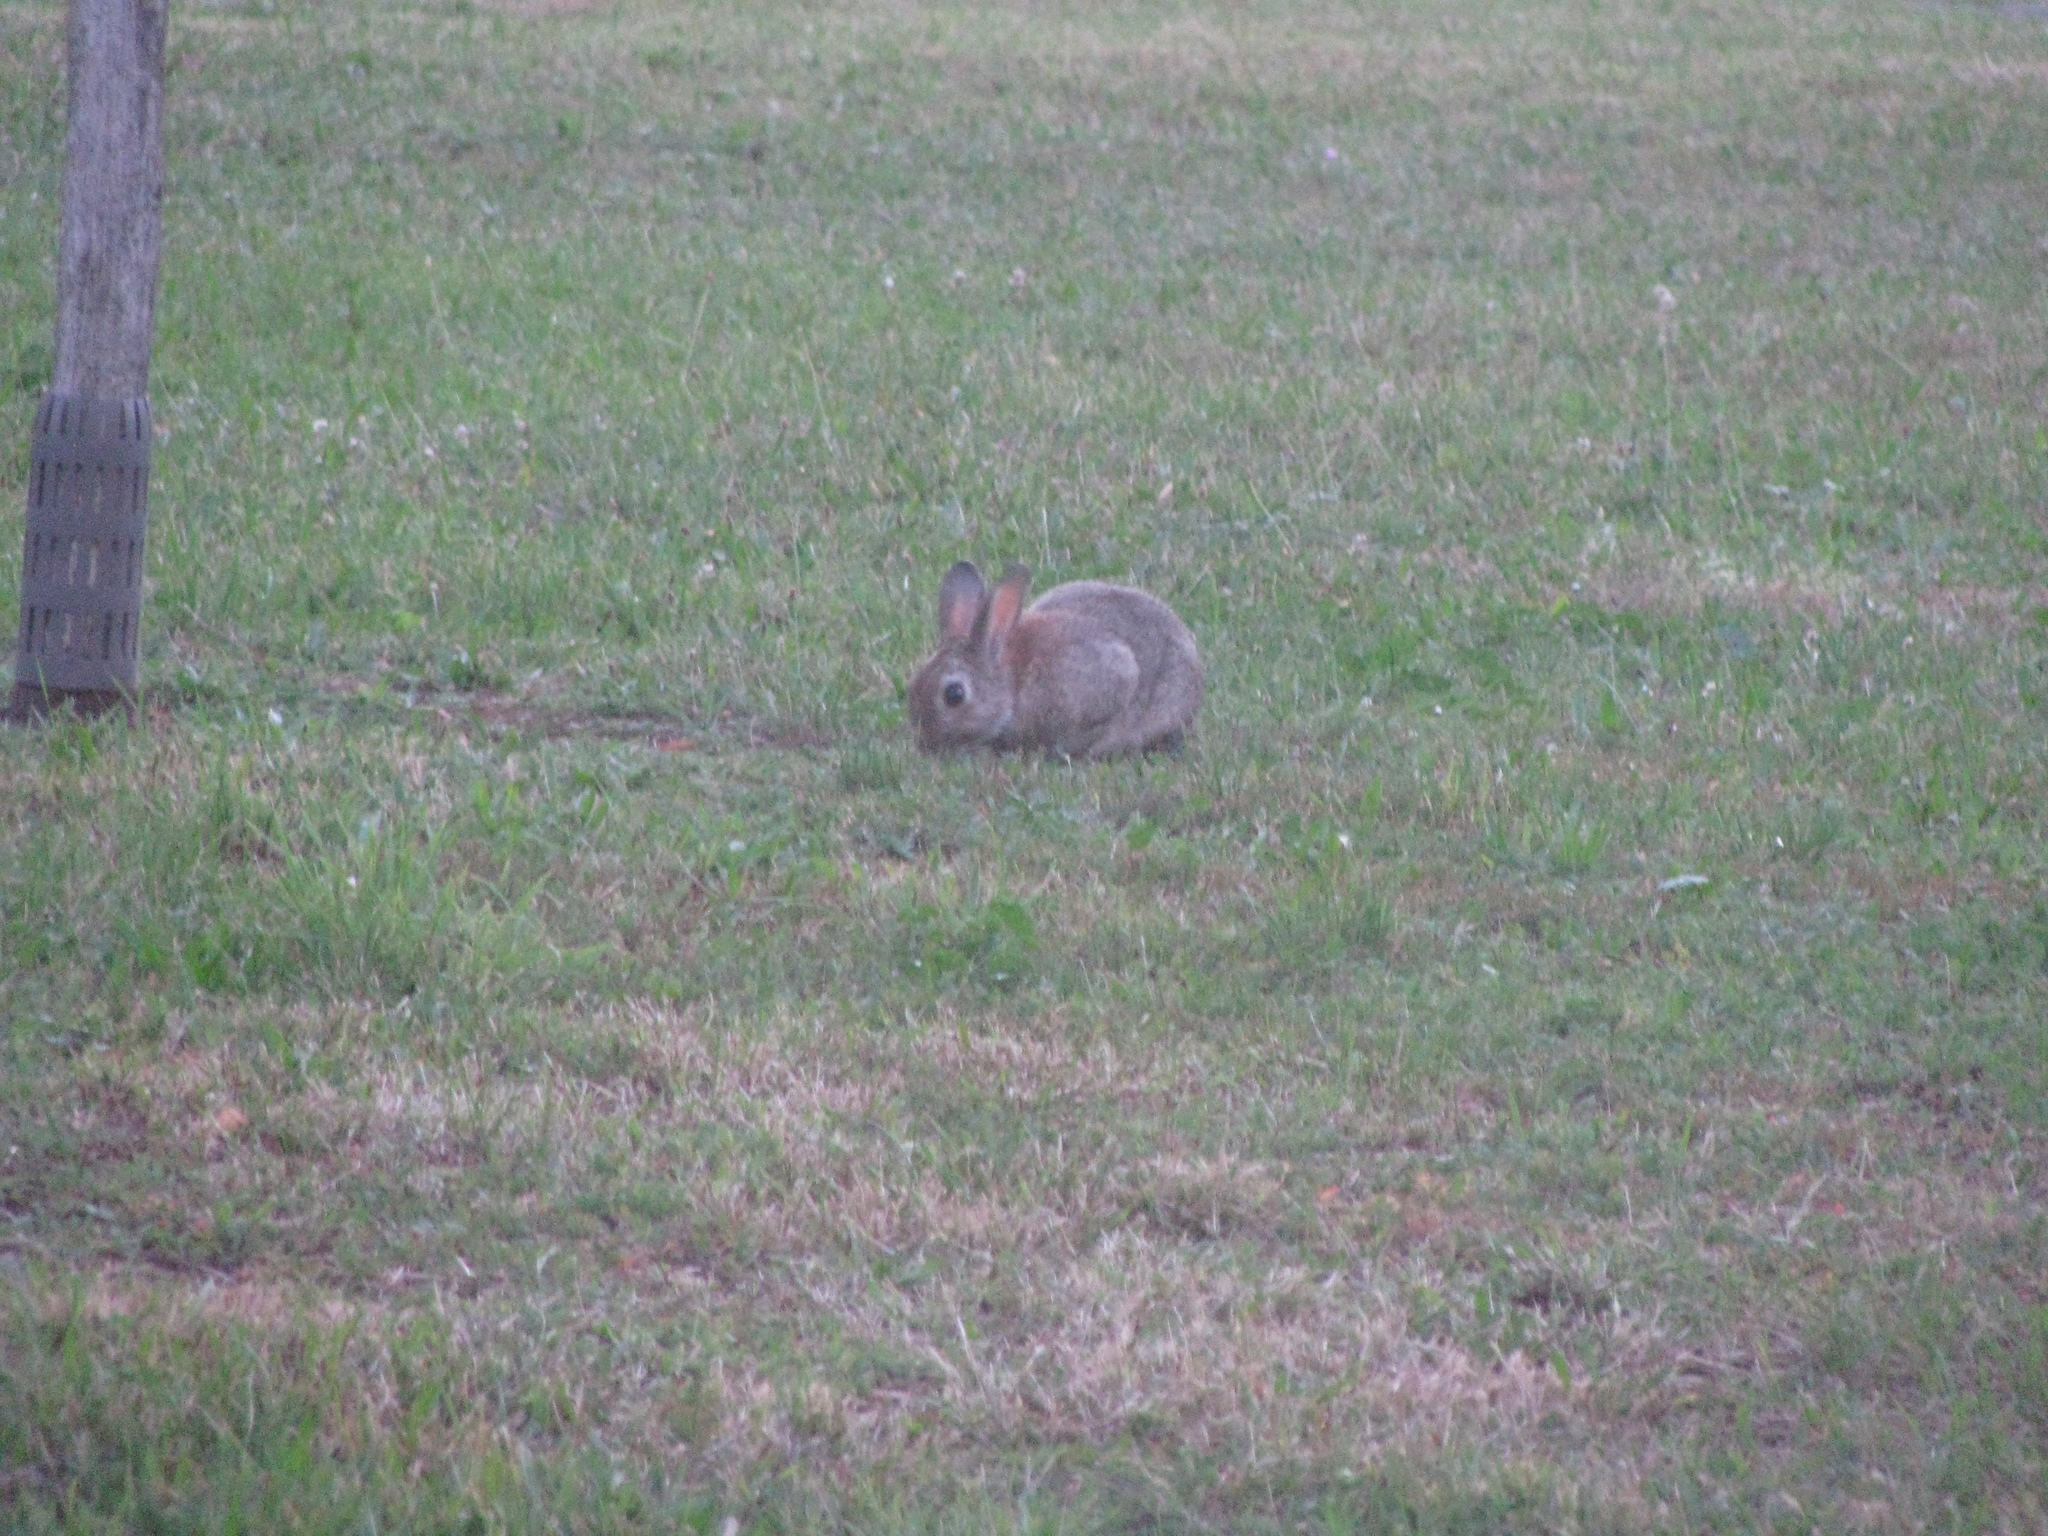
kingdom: Animalia
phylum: Chordata
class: Mammalia
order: Lagomorpha
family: Leporidae
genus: Oryctolagus
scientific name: Oryctolagus cuniculus
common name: European rabbit
